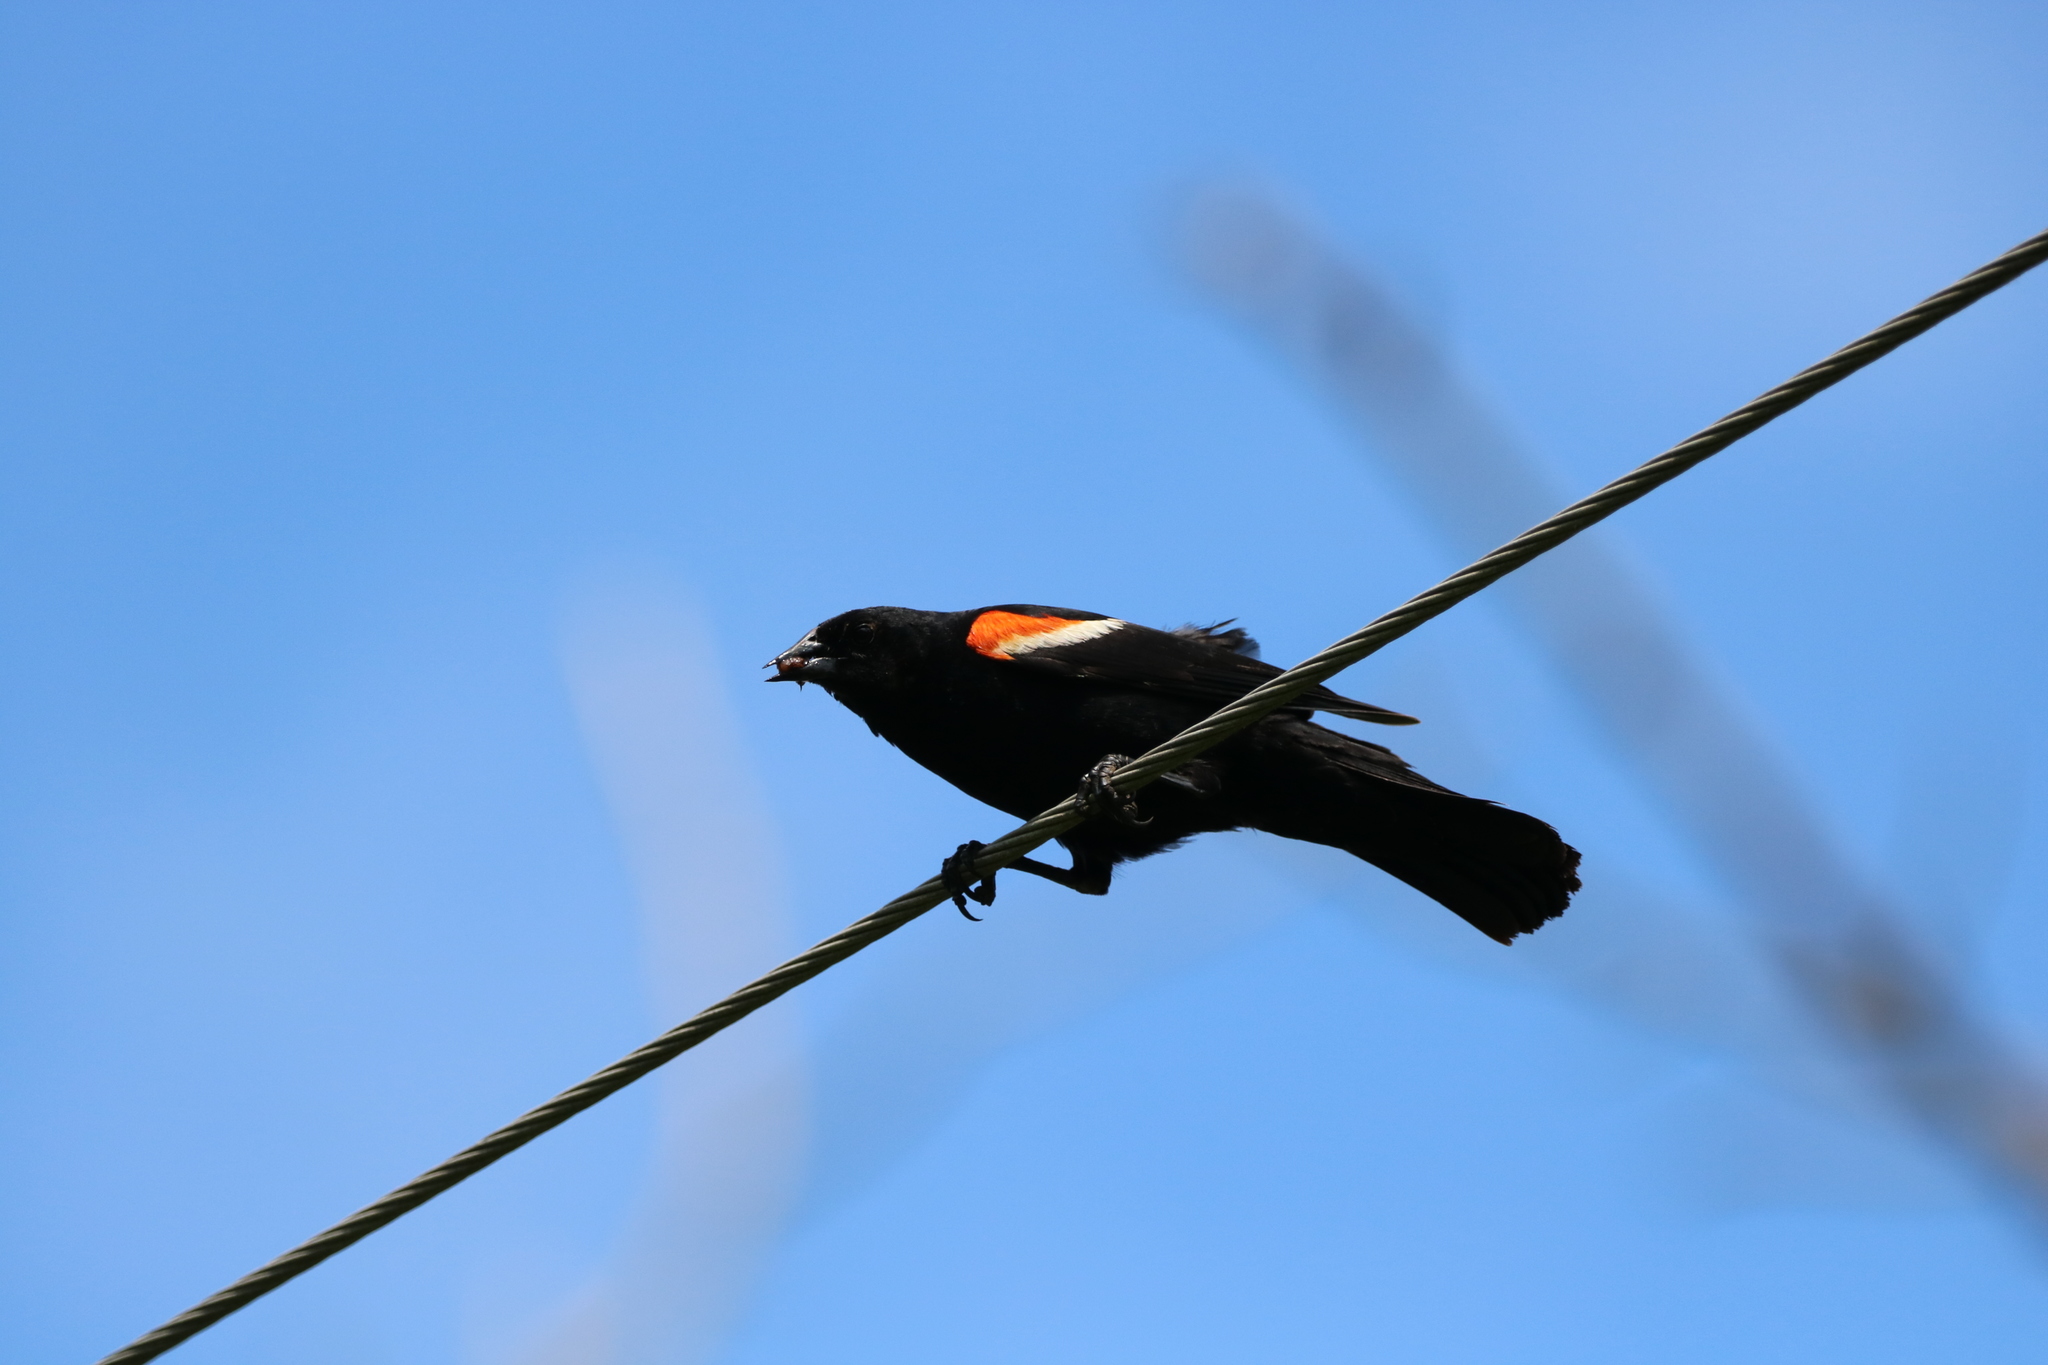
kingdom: Animalia
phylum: Chordata
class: Aves
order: Passeriformes
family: Icteridae
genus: Agelaius
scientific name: Agelaius phoeniceus
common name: Red-winged blackbird
